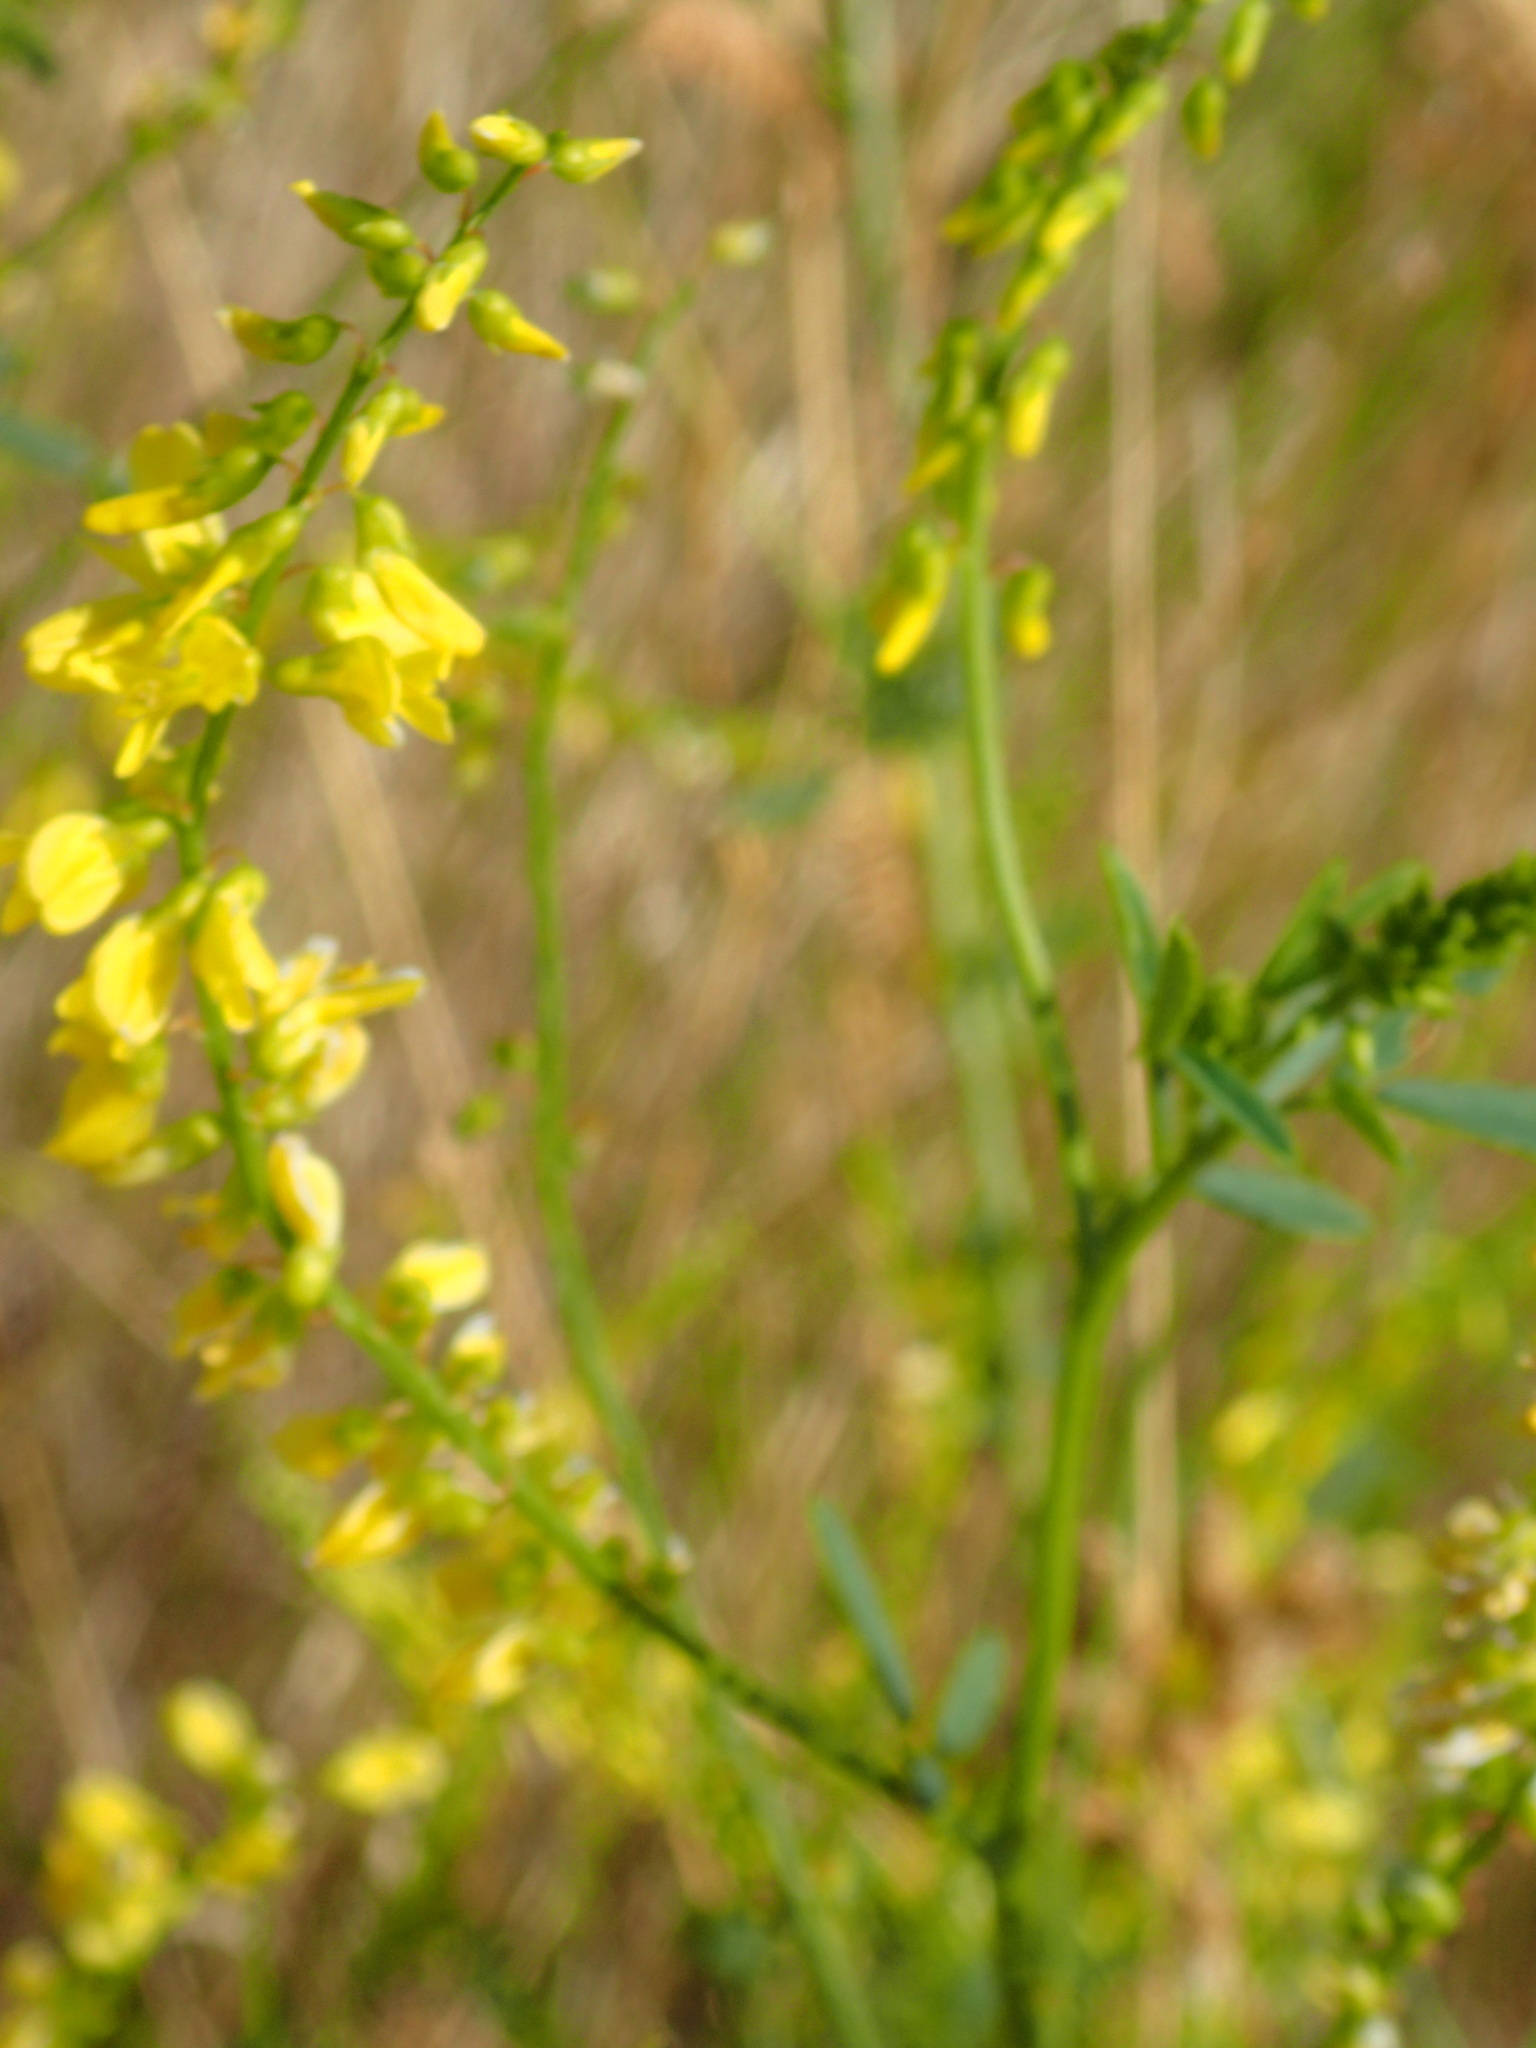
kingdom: Plantae
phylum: Tracheophyta
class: Magnoliopsida
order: Fabales
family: Fabaceae
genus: Melilotus
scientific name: Melilotus officinalis
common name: Sweetclover
